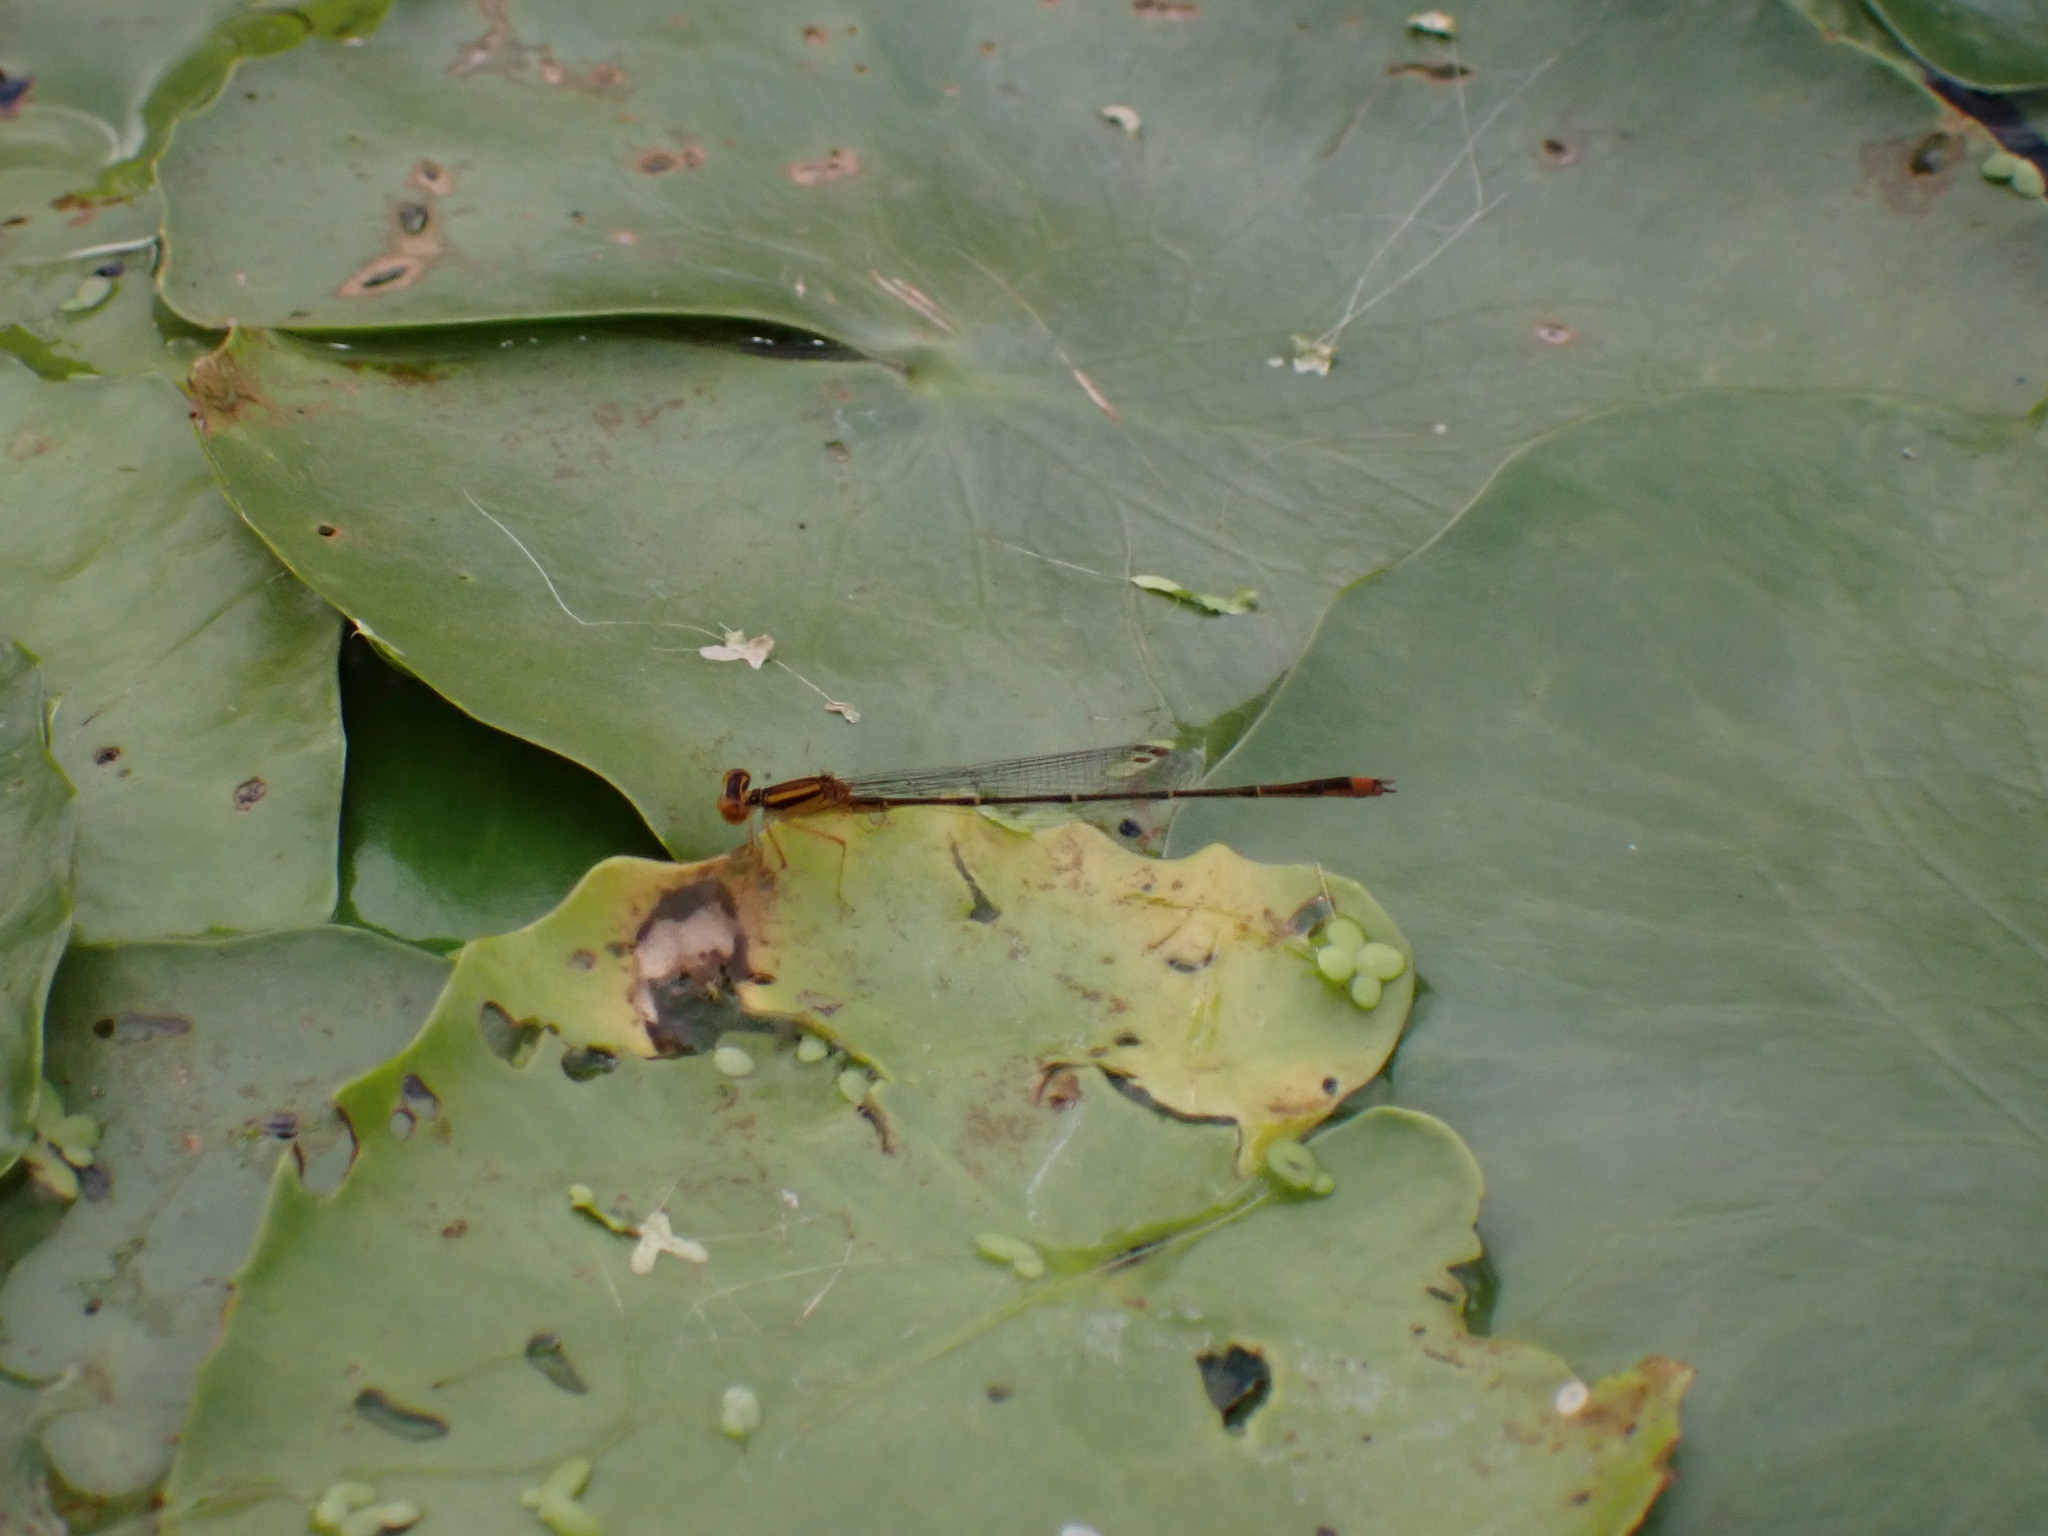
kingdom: Animalia
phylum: Arthropoda
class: Insecta
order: Odonata
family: Coenagrionidae
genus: Enallagma
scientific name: Enallagma signatum
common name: Orange bluet
